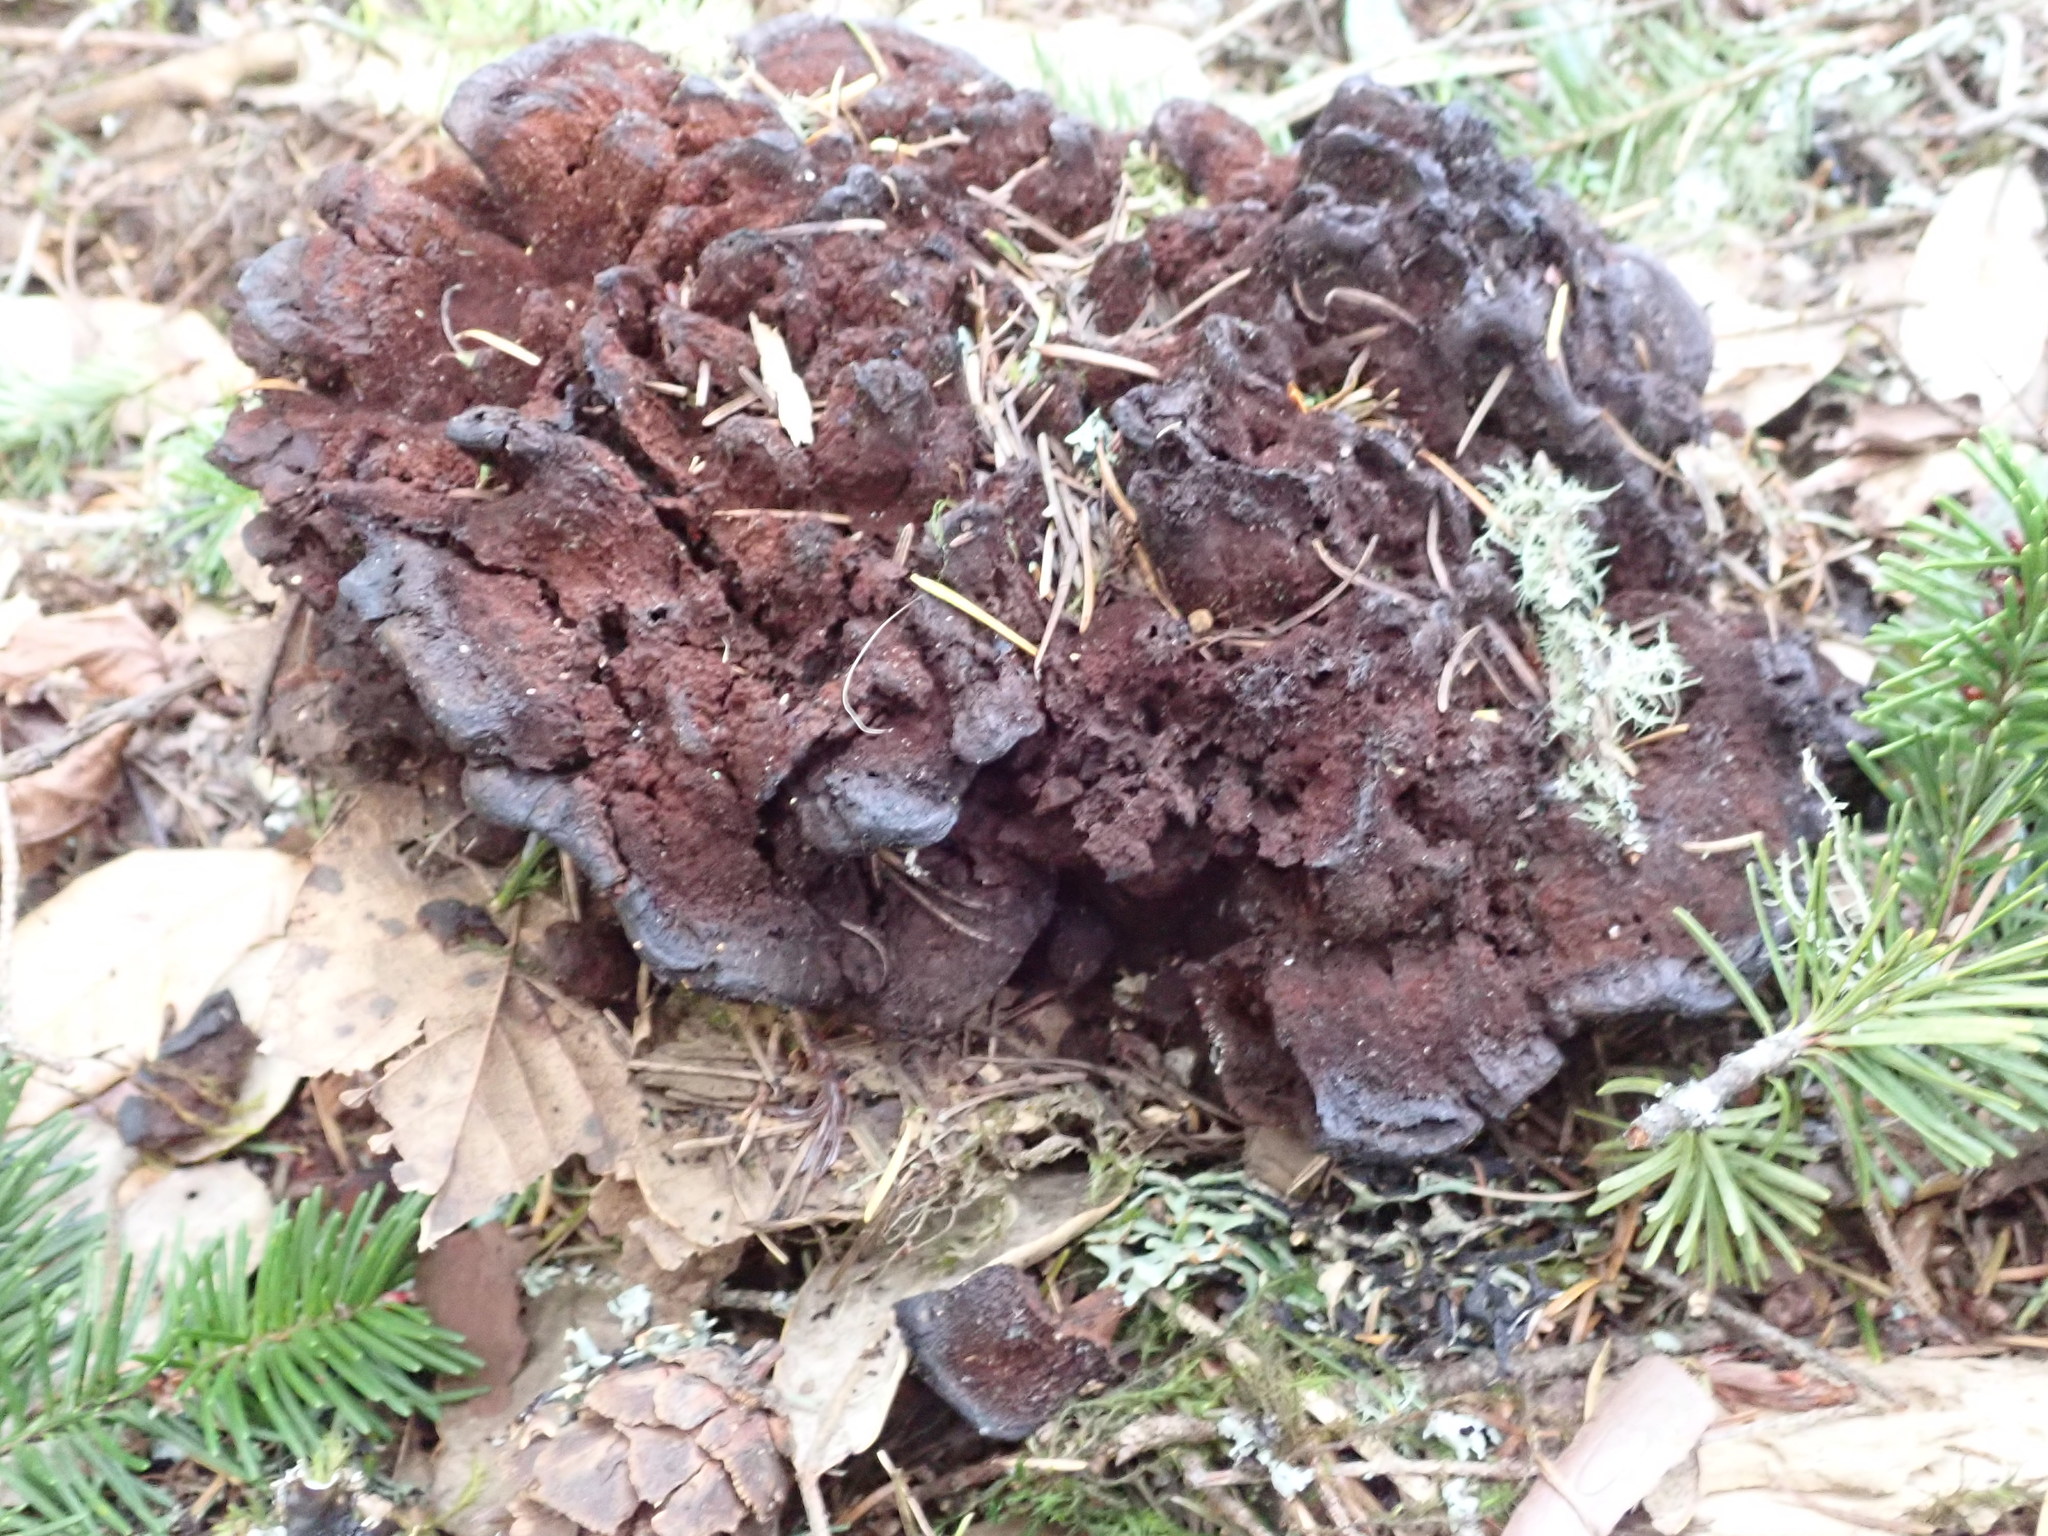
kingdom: Fungi
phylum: Basidiomycota
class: Agaricomycetes
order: Polyporales
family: Laetiporaceae
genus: Phaeolus
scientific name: Phaeolus schweinitzii
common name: Dyer's mazegill
